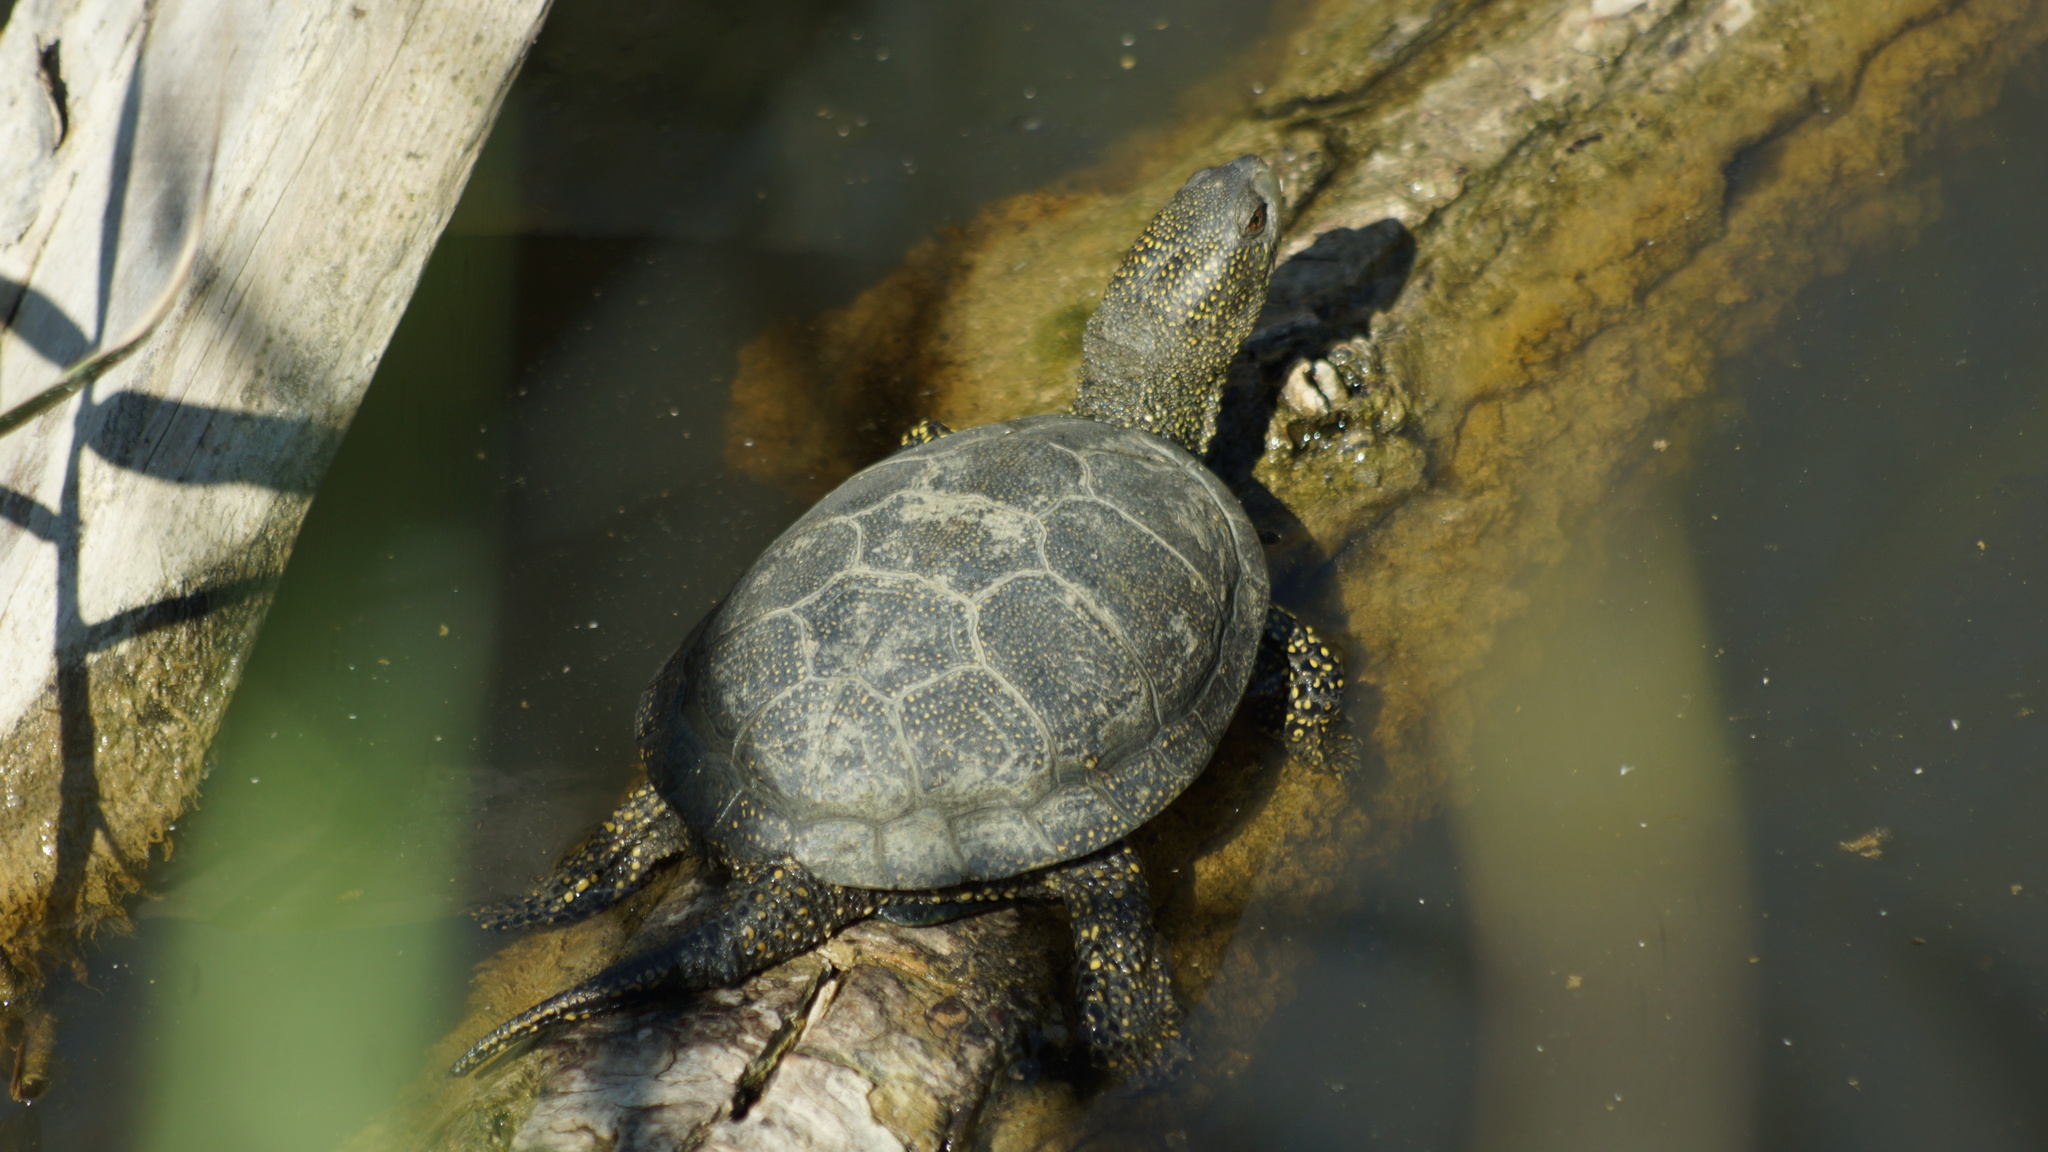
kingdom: Animalia
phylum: Chordata
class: Testudines
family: Emydidae
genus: Emys
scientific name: Emys orbicularis
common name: European pond turtle
